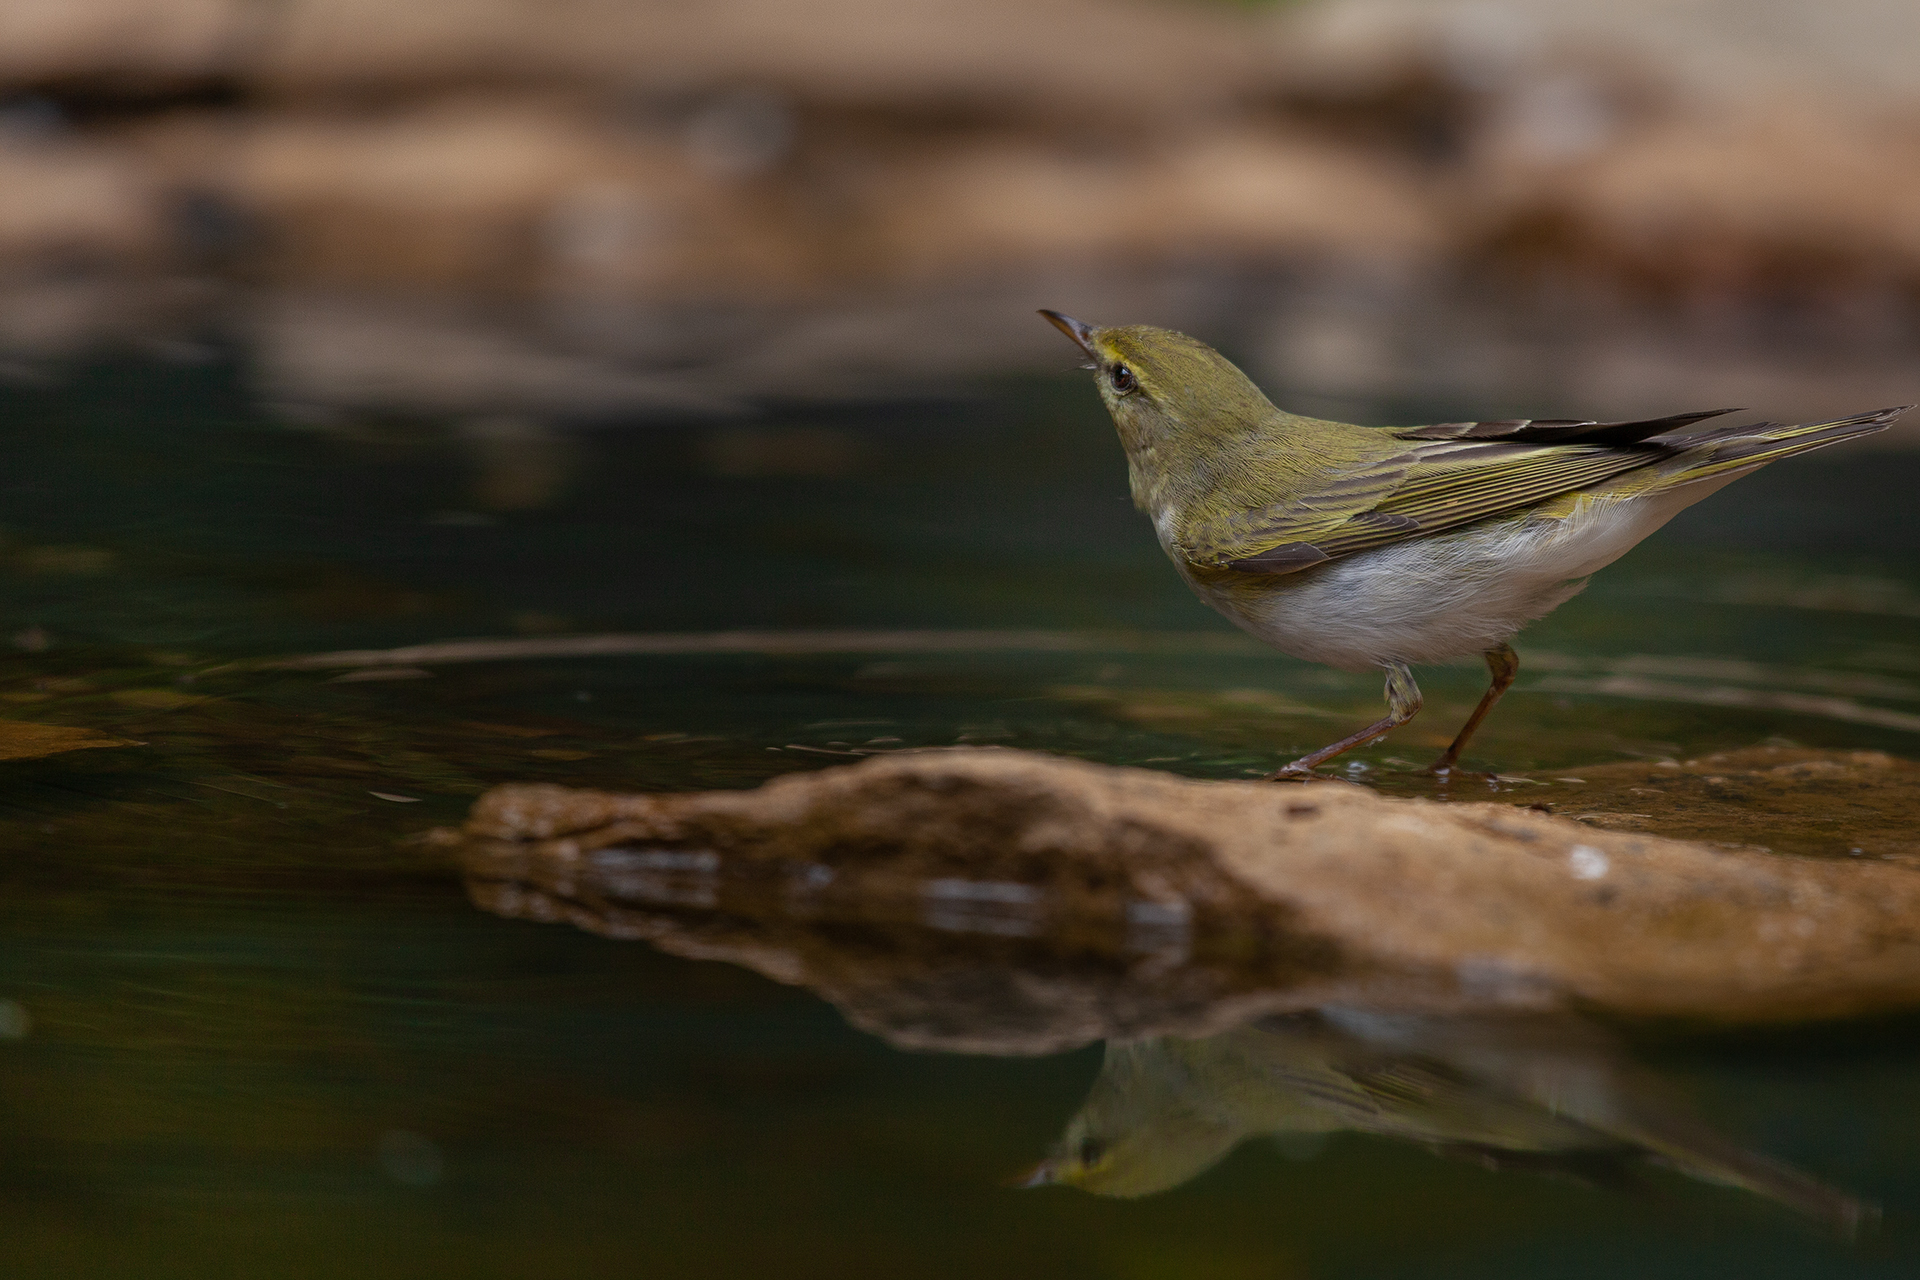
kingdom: Animalia
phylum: Chordata
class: Aves
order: Passeriformes
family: Phylloscopidae
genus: Phylloscopus
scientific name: Phylloscopus sibillatrix
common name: Wood warbler
